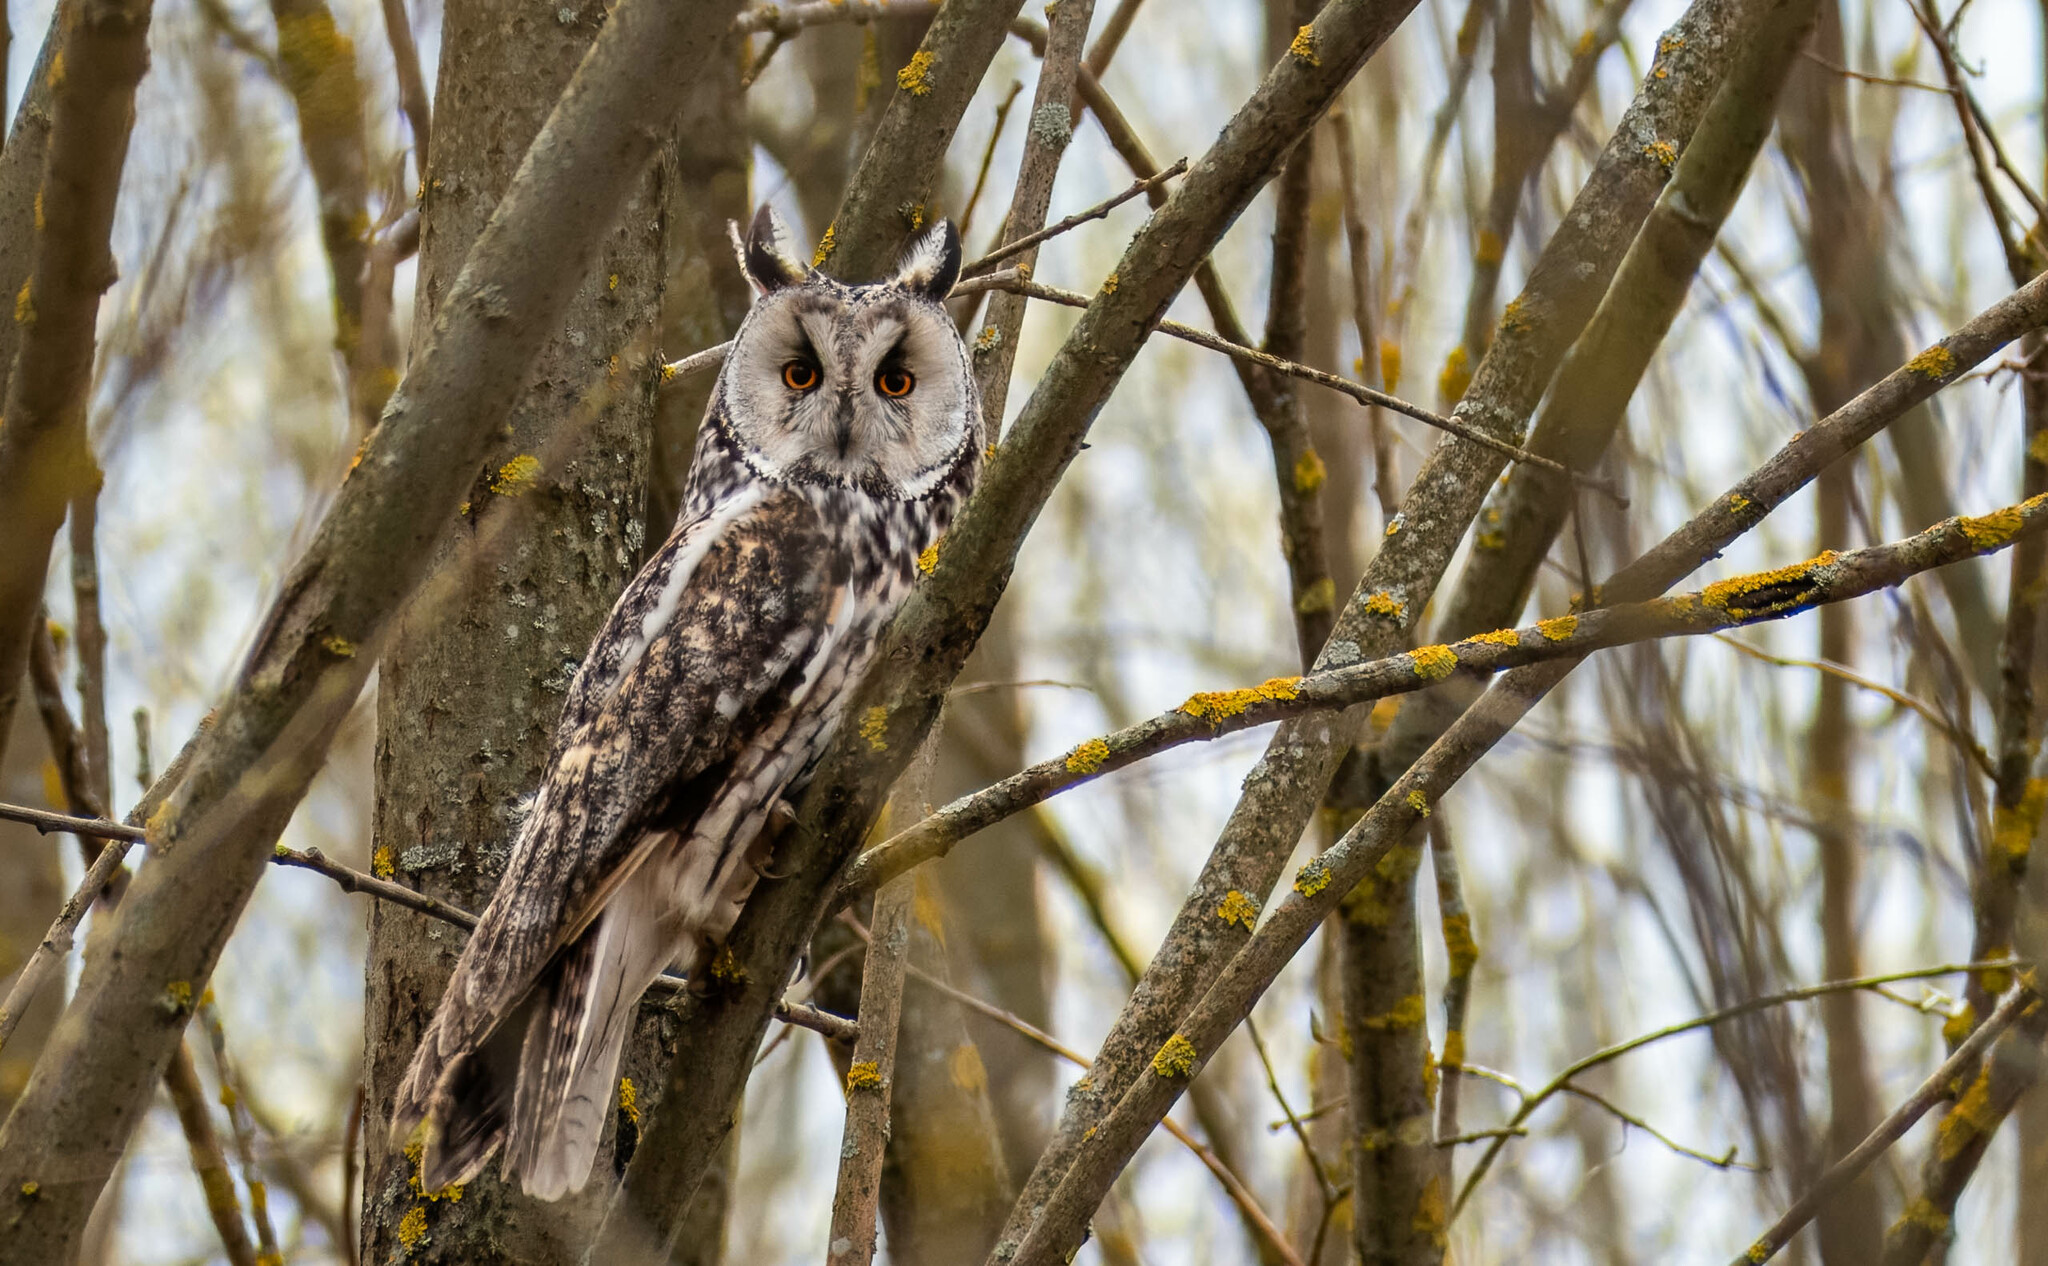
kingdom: Animalia
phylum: Chordata
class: Aves
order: Strigiformes
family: Strigidae
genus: Asio
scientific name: Asio otus
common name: Long-eared owl
